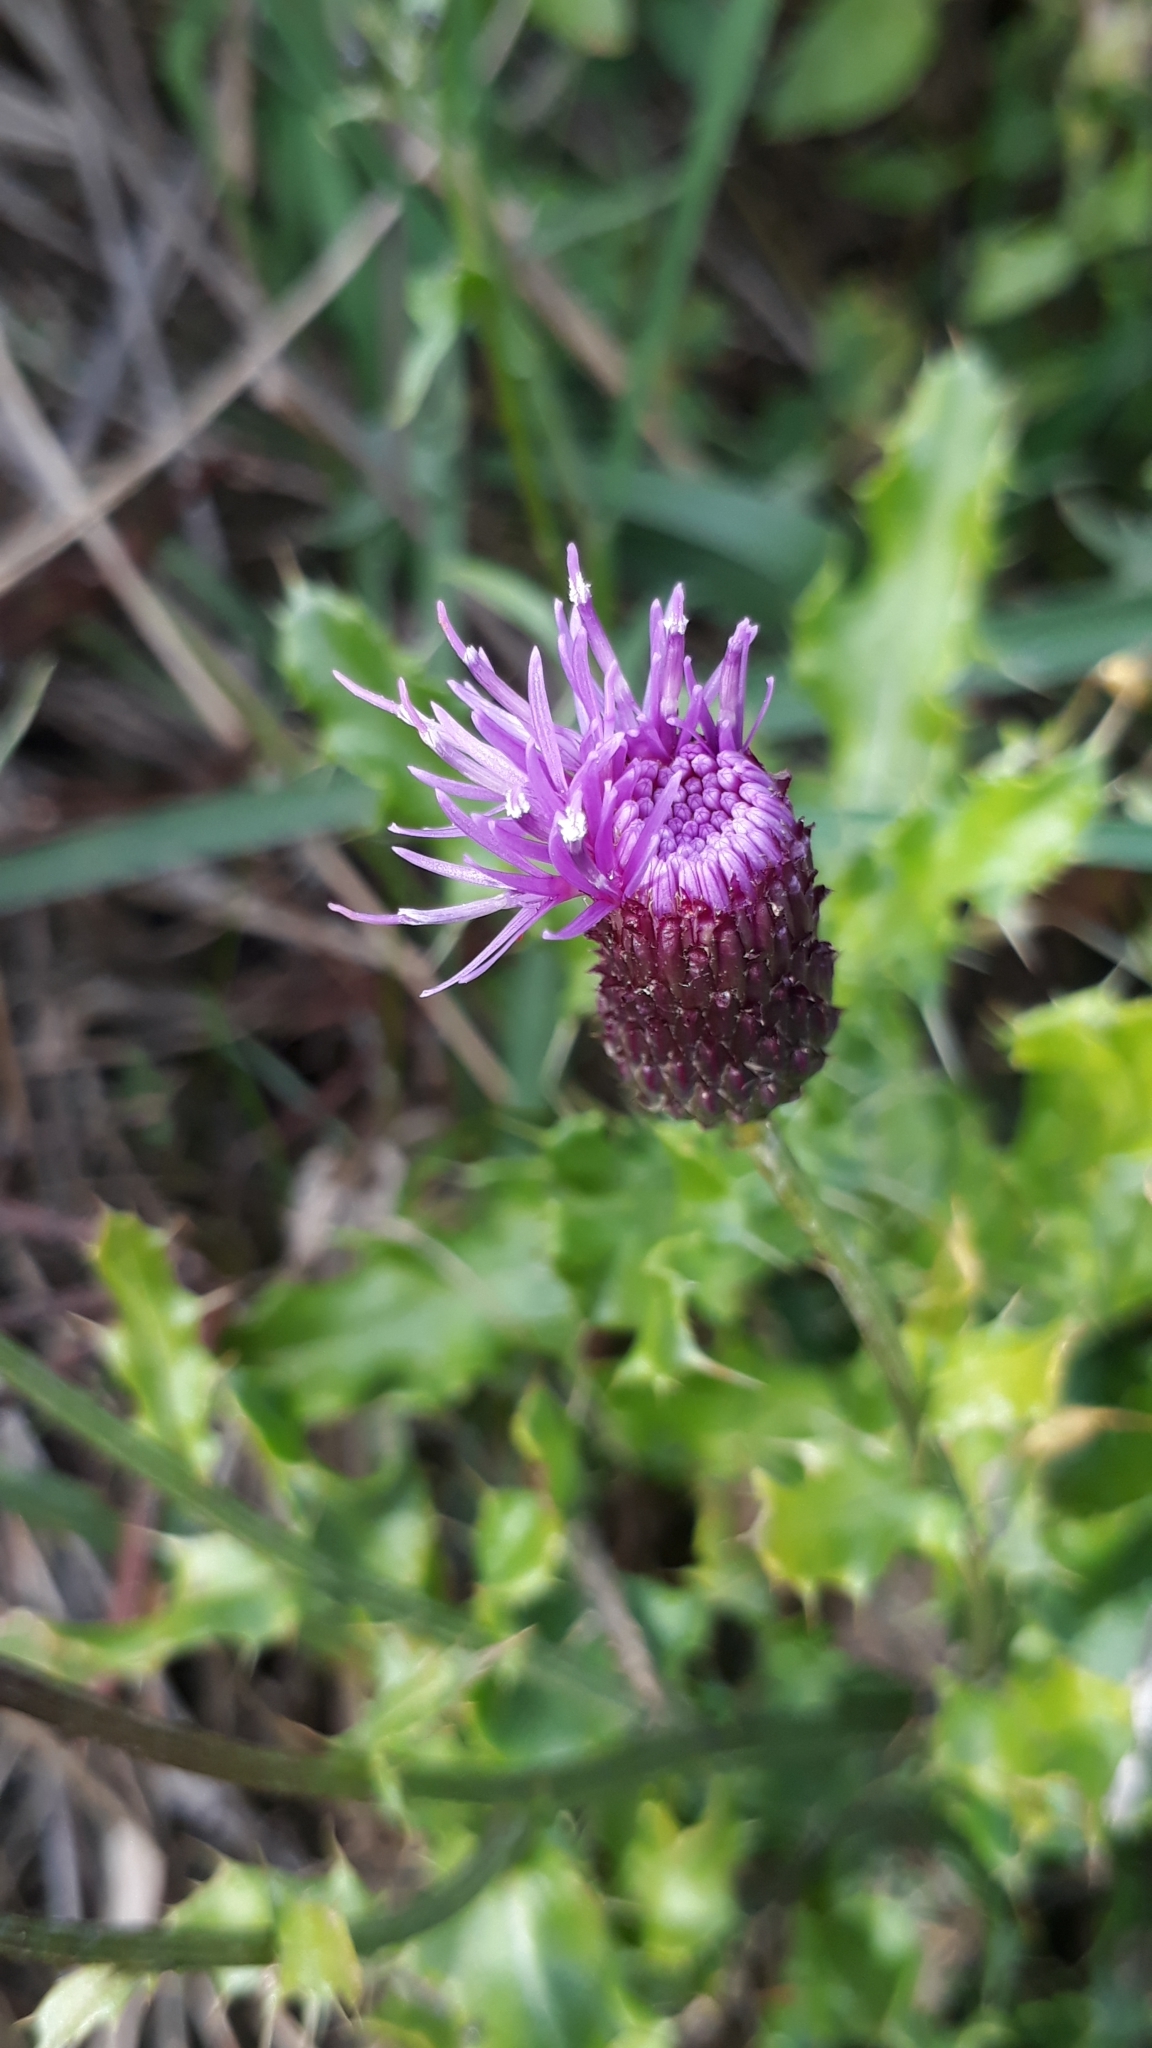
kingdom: Plantae
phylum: Tracheophyta
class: Magnoliopsida
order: Asterales
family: Asteraceae
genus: Cirsium
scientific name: Cirsium arvense
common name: Creeping thistle
